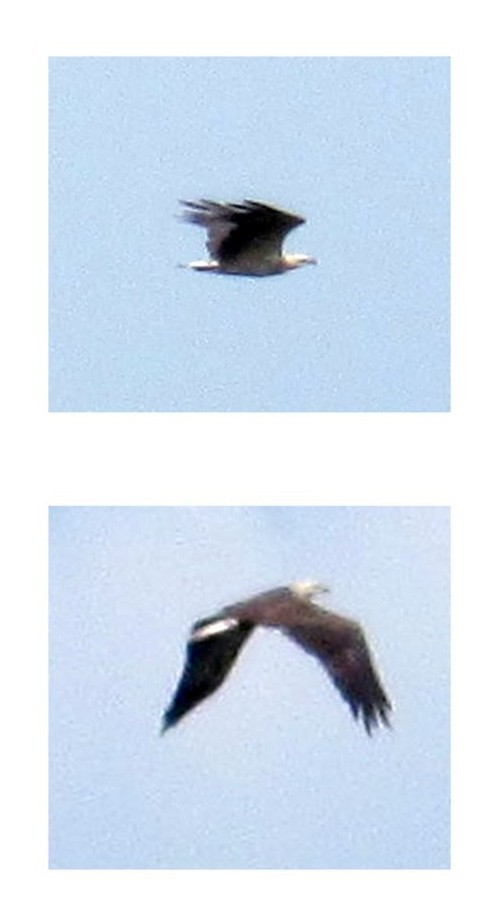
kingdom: Animalia
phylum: Chordata
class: Aves
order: Accipitriformes
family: Accipitridae
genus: Haliaeetus
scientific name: Haliaeetus leucogaster
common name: White-bellied sea eagle
